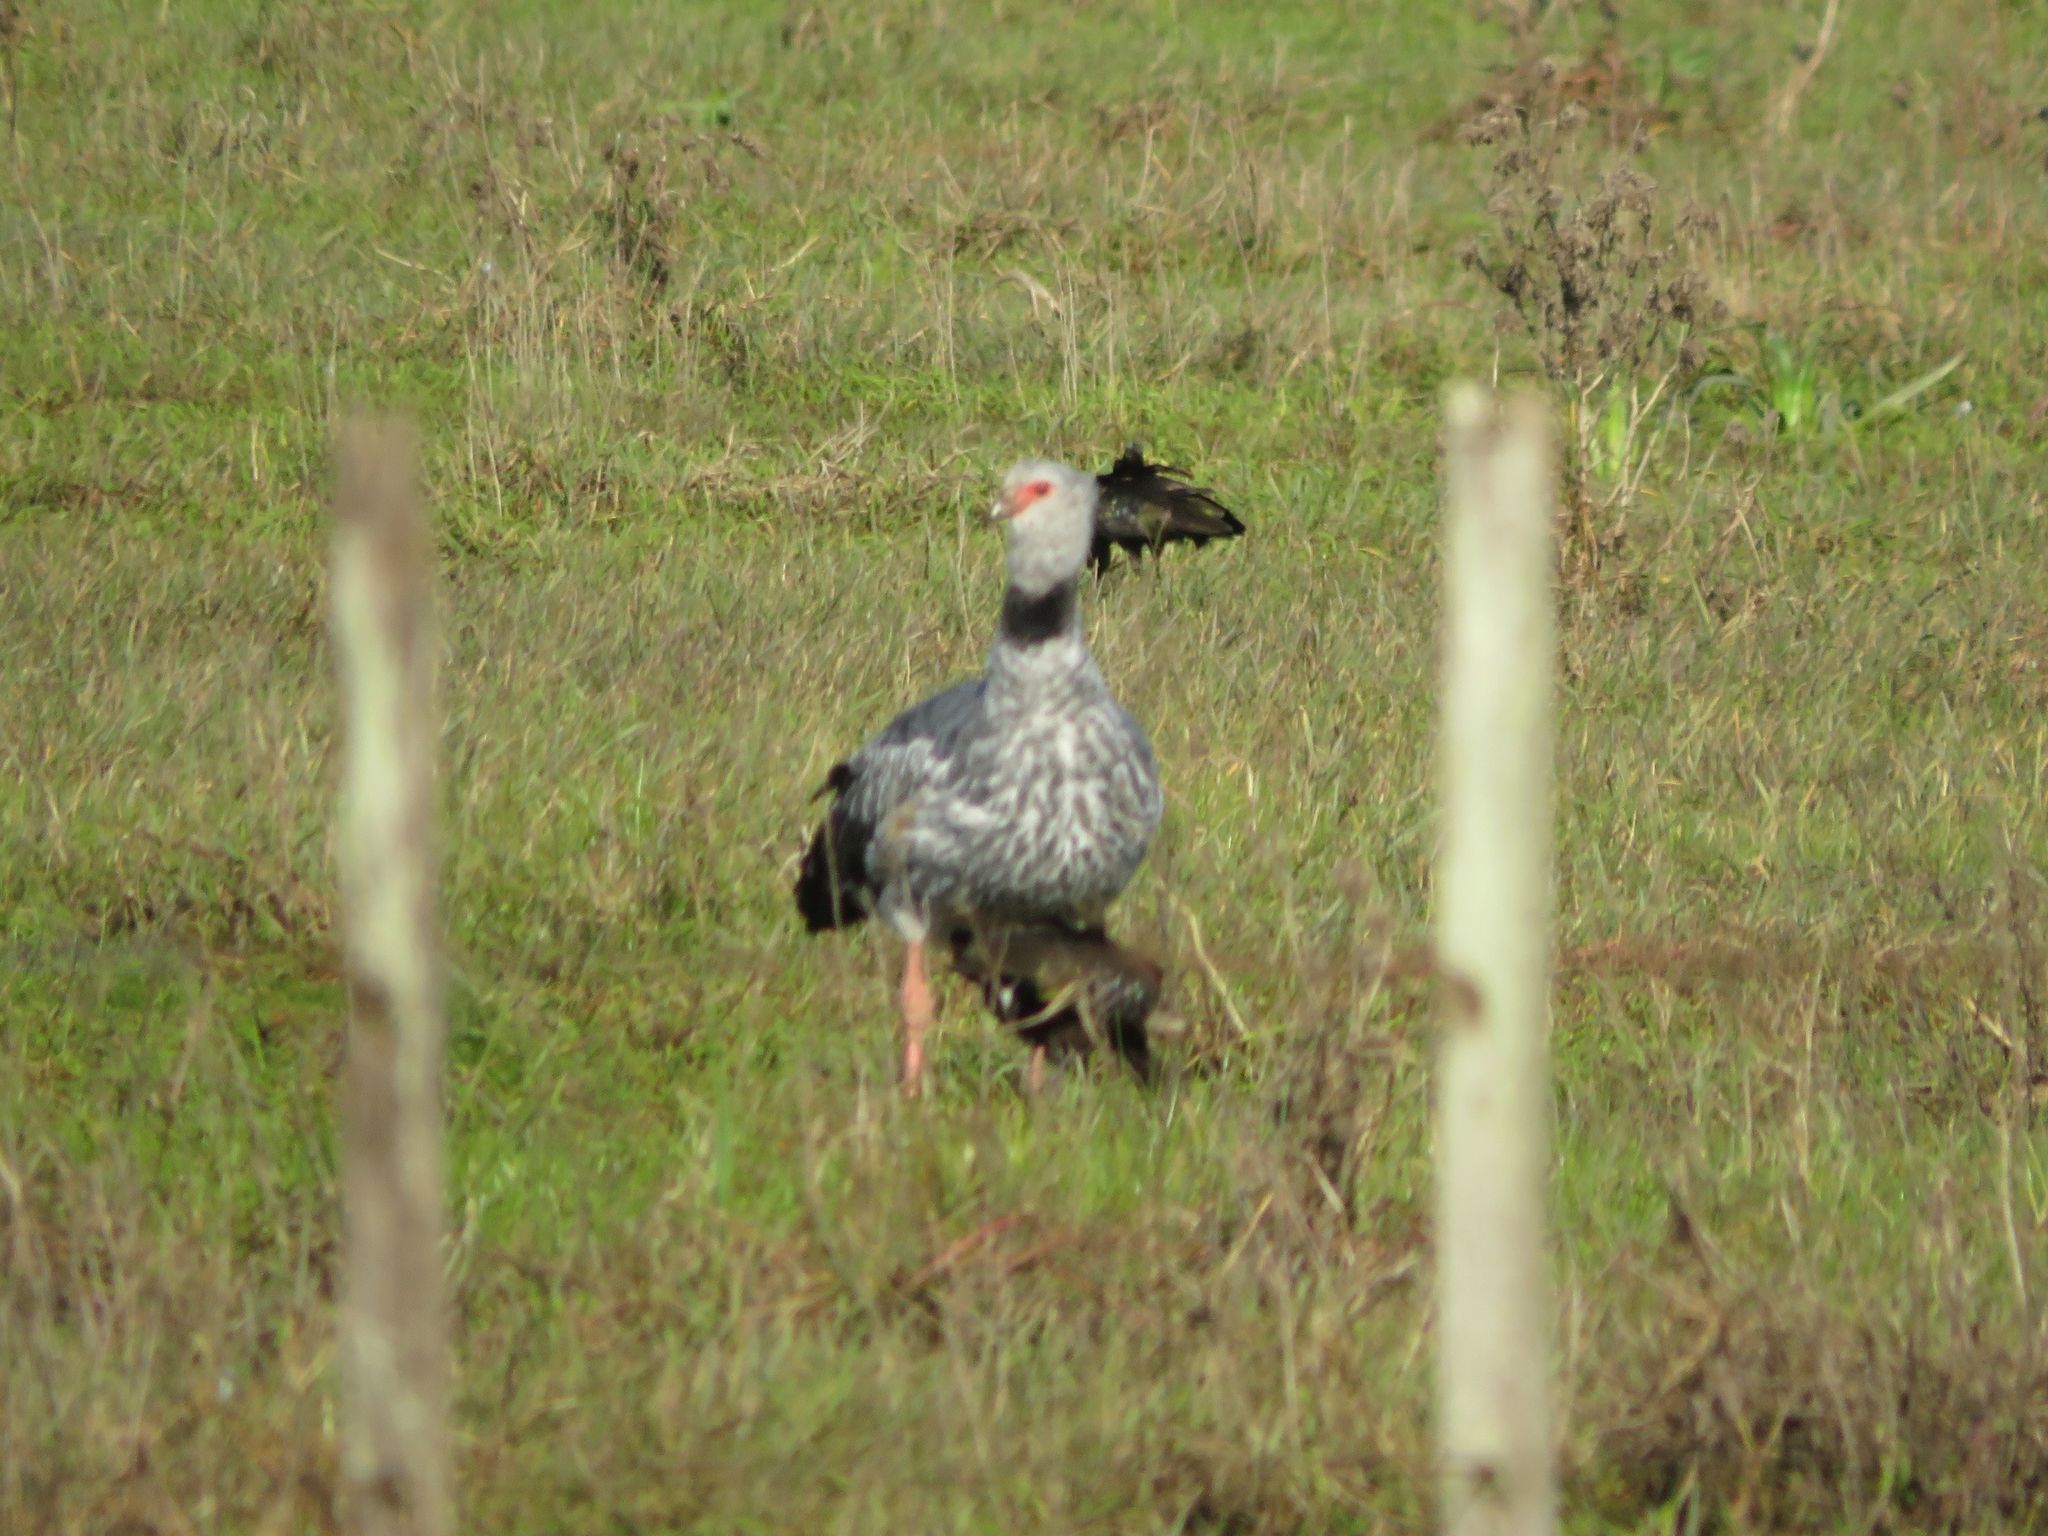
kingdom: Animalia
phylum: Chordata
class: Aves
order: Anseriformes
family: Anhimidae
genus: Chauna
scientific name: Chauna torquata
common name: Southern screamer
